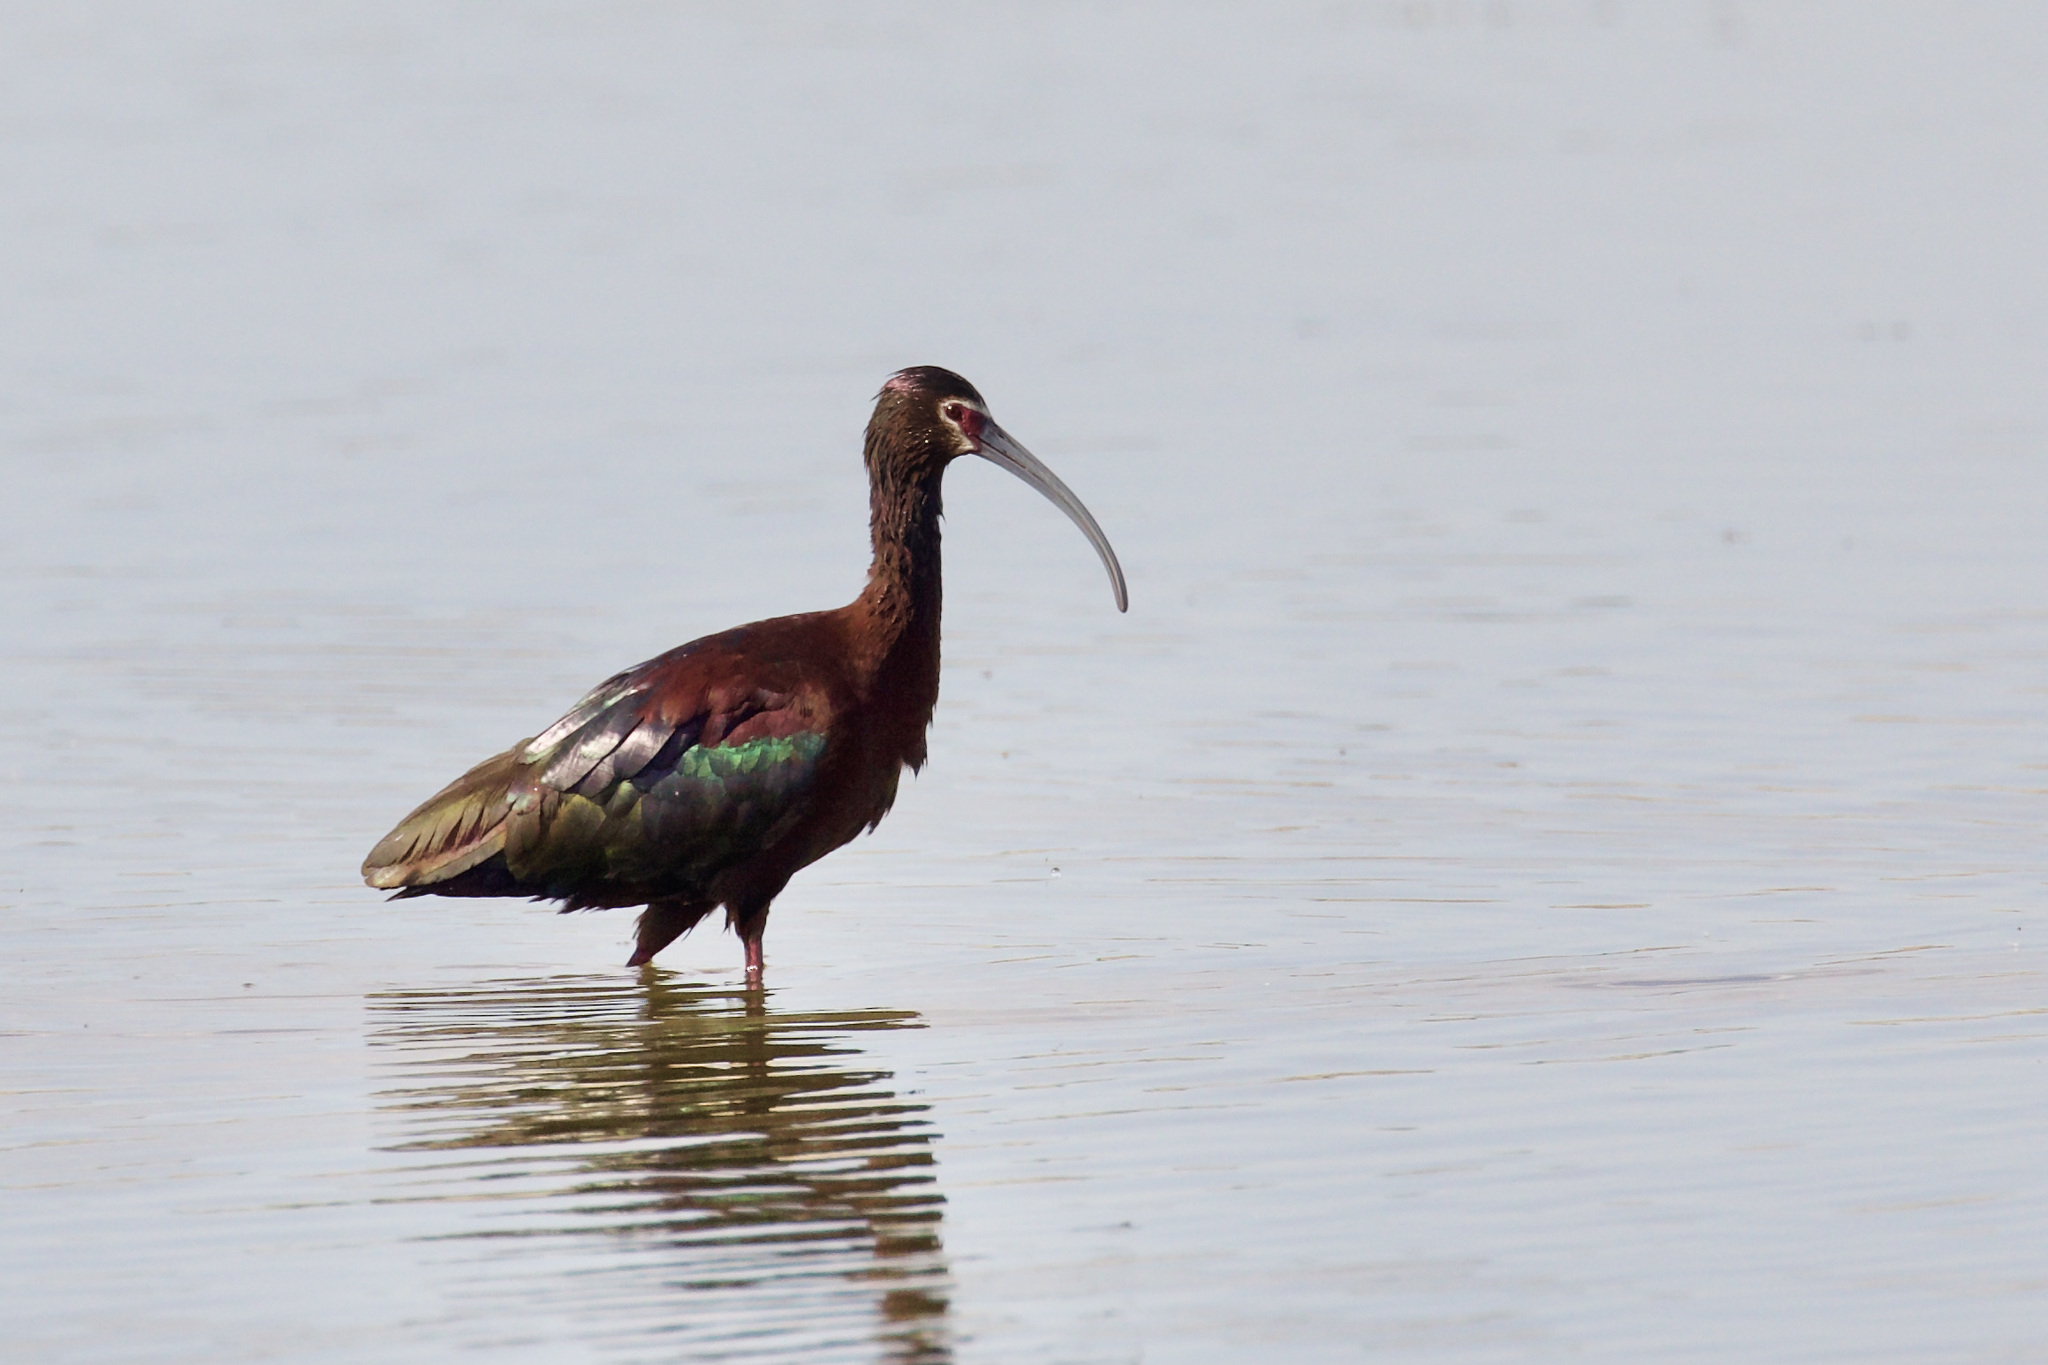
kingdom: Animalia
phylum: Chordata
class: Aves
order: Pelecaniformes
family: Threskiornithidae
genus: Plegadis
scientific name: Plegadis chihi
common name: White-faced ibis
